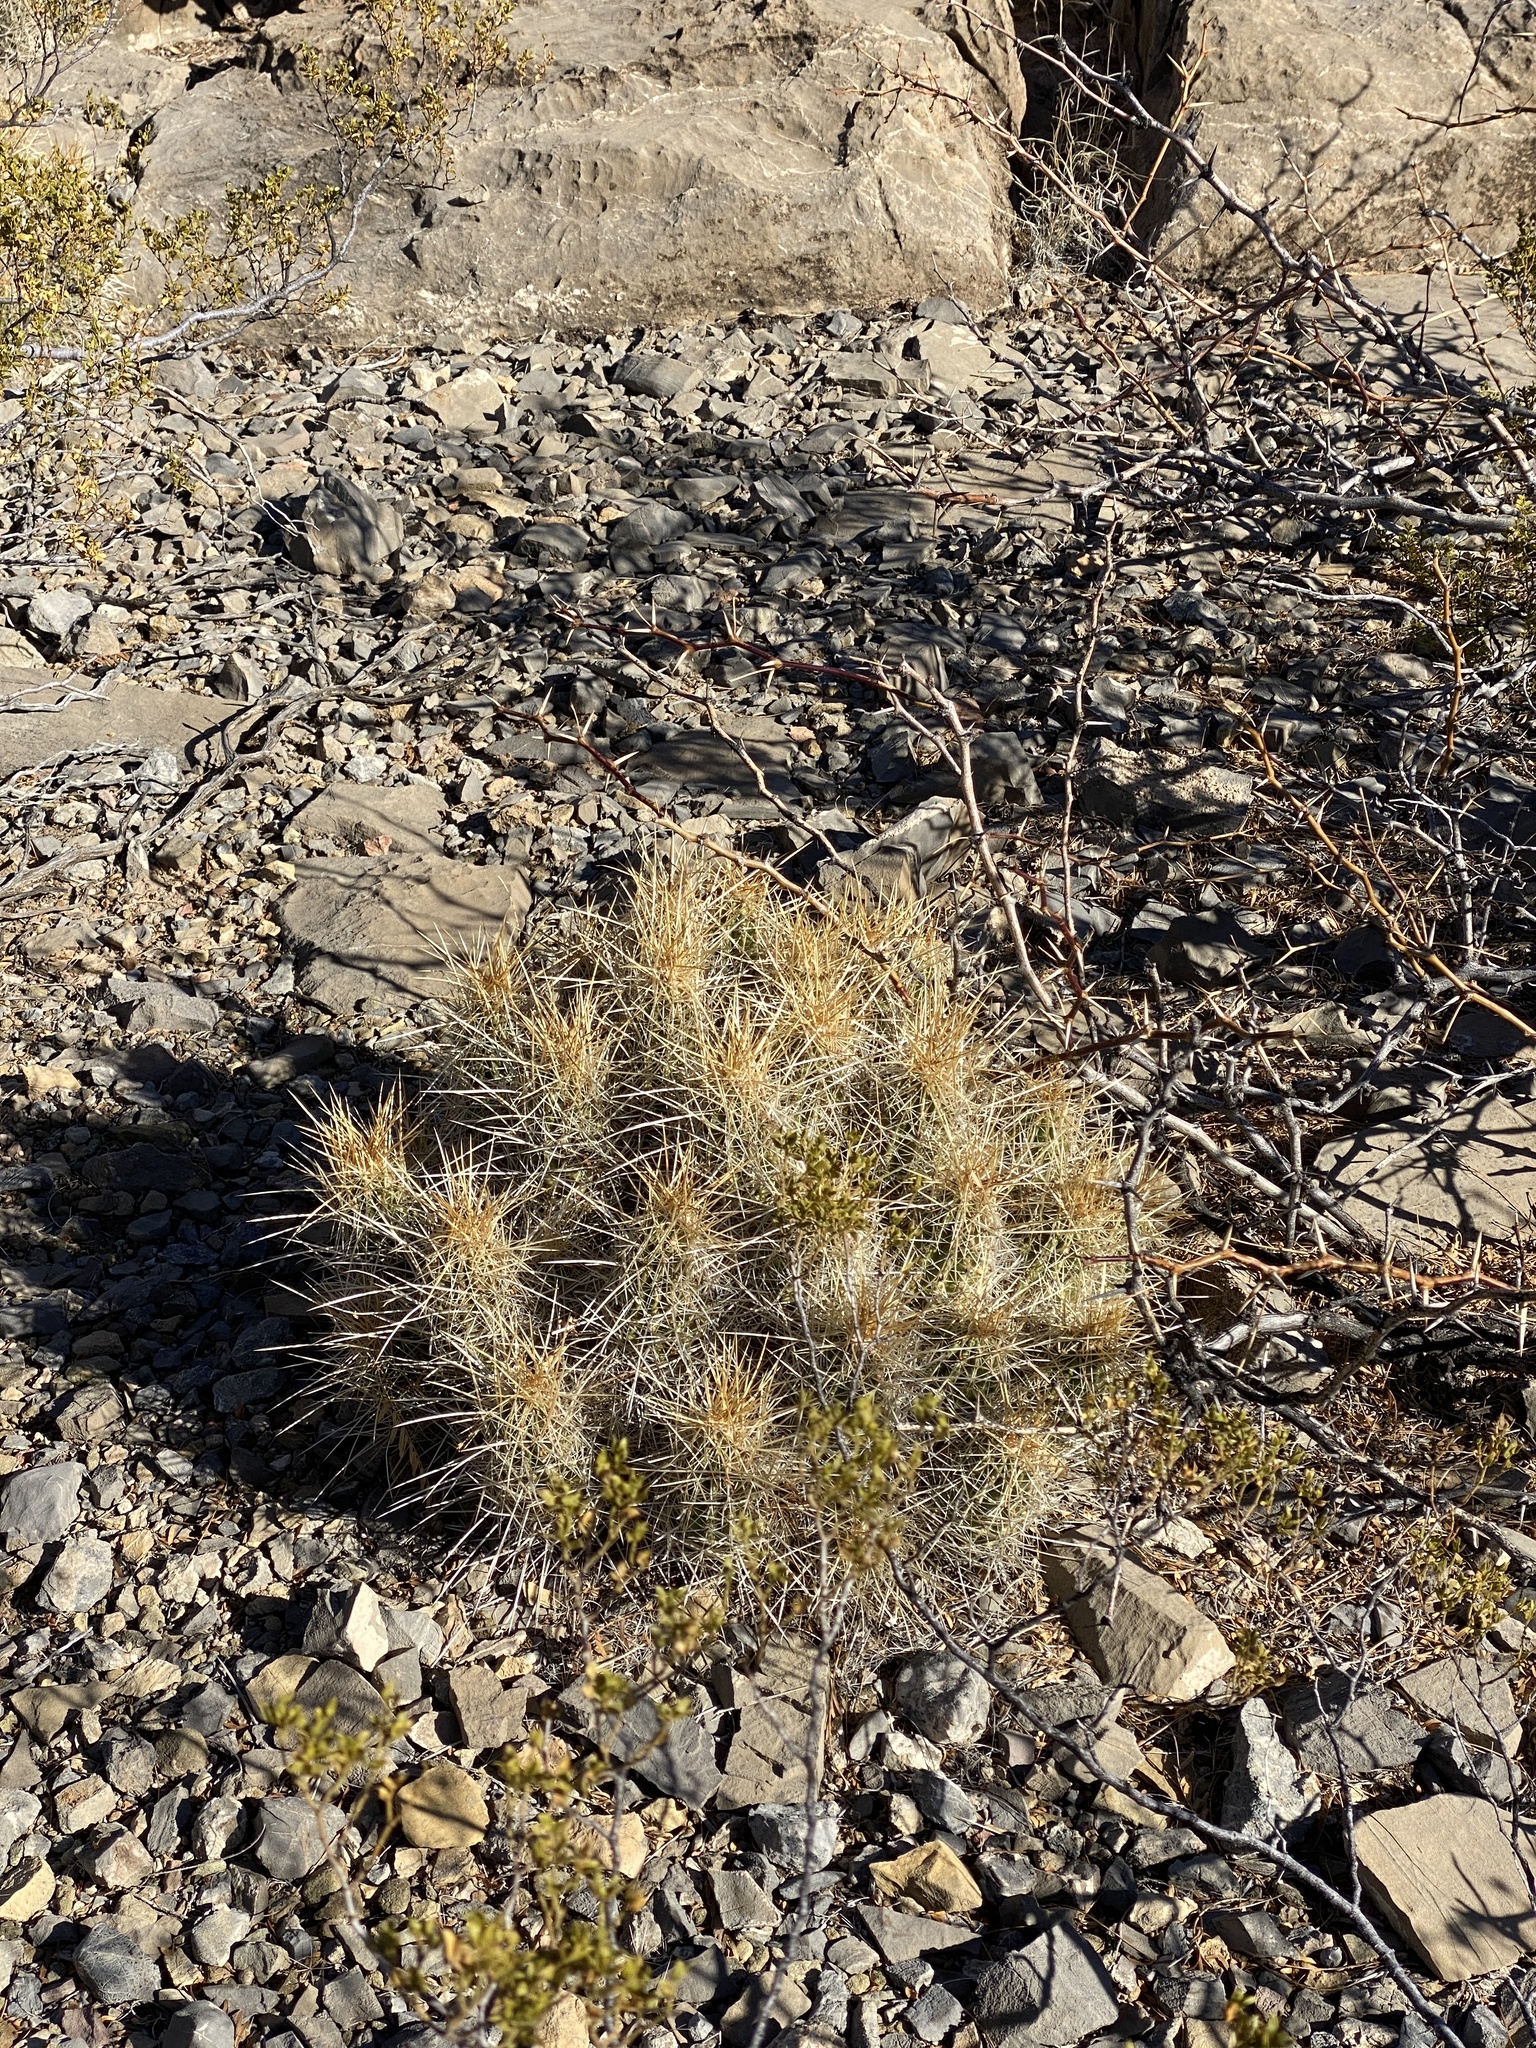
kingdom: Plantae
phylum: Tracheophyta
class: Magnoliopsida
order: Caryophyllales
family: Cactaceae
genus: Echinocereus
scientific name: Echinocereus stramineus
